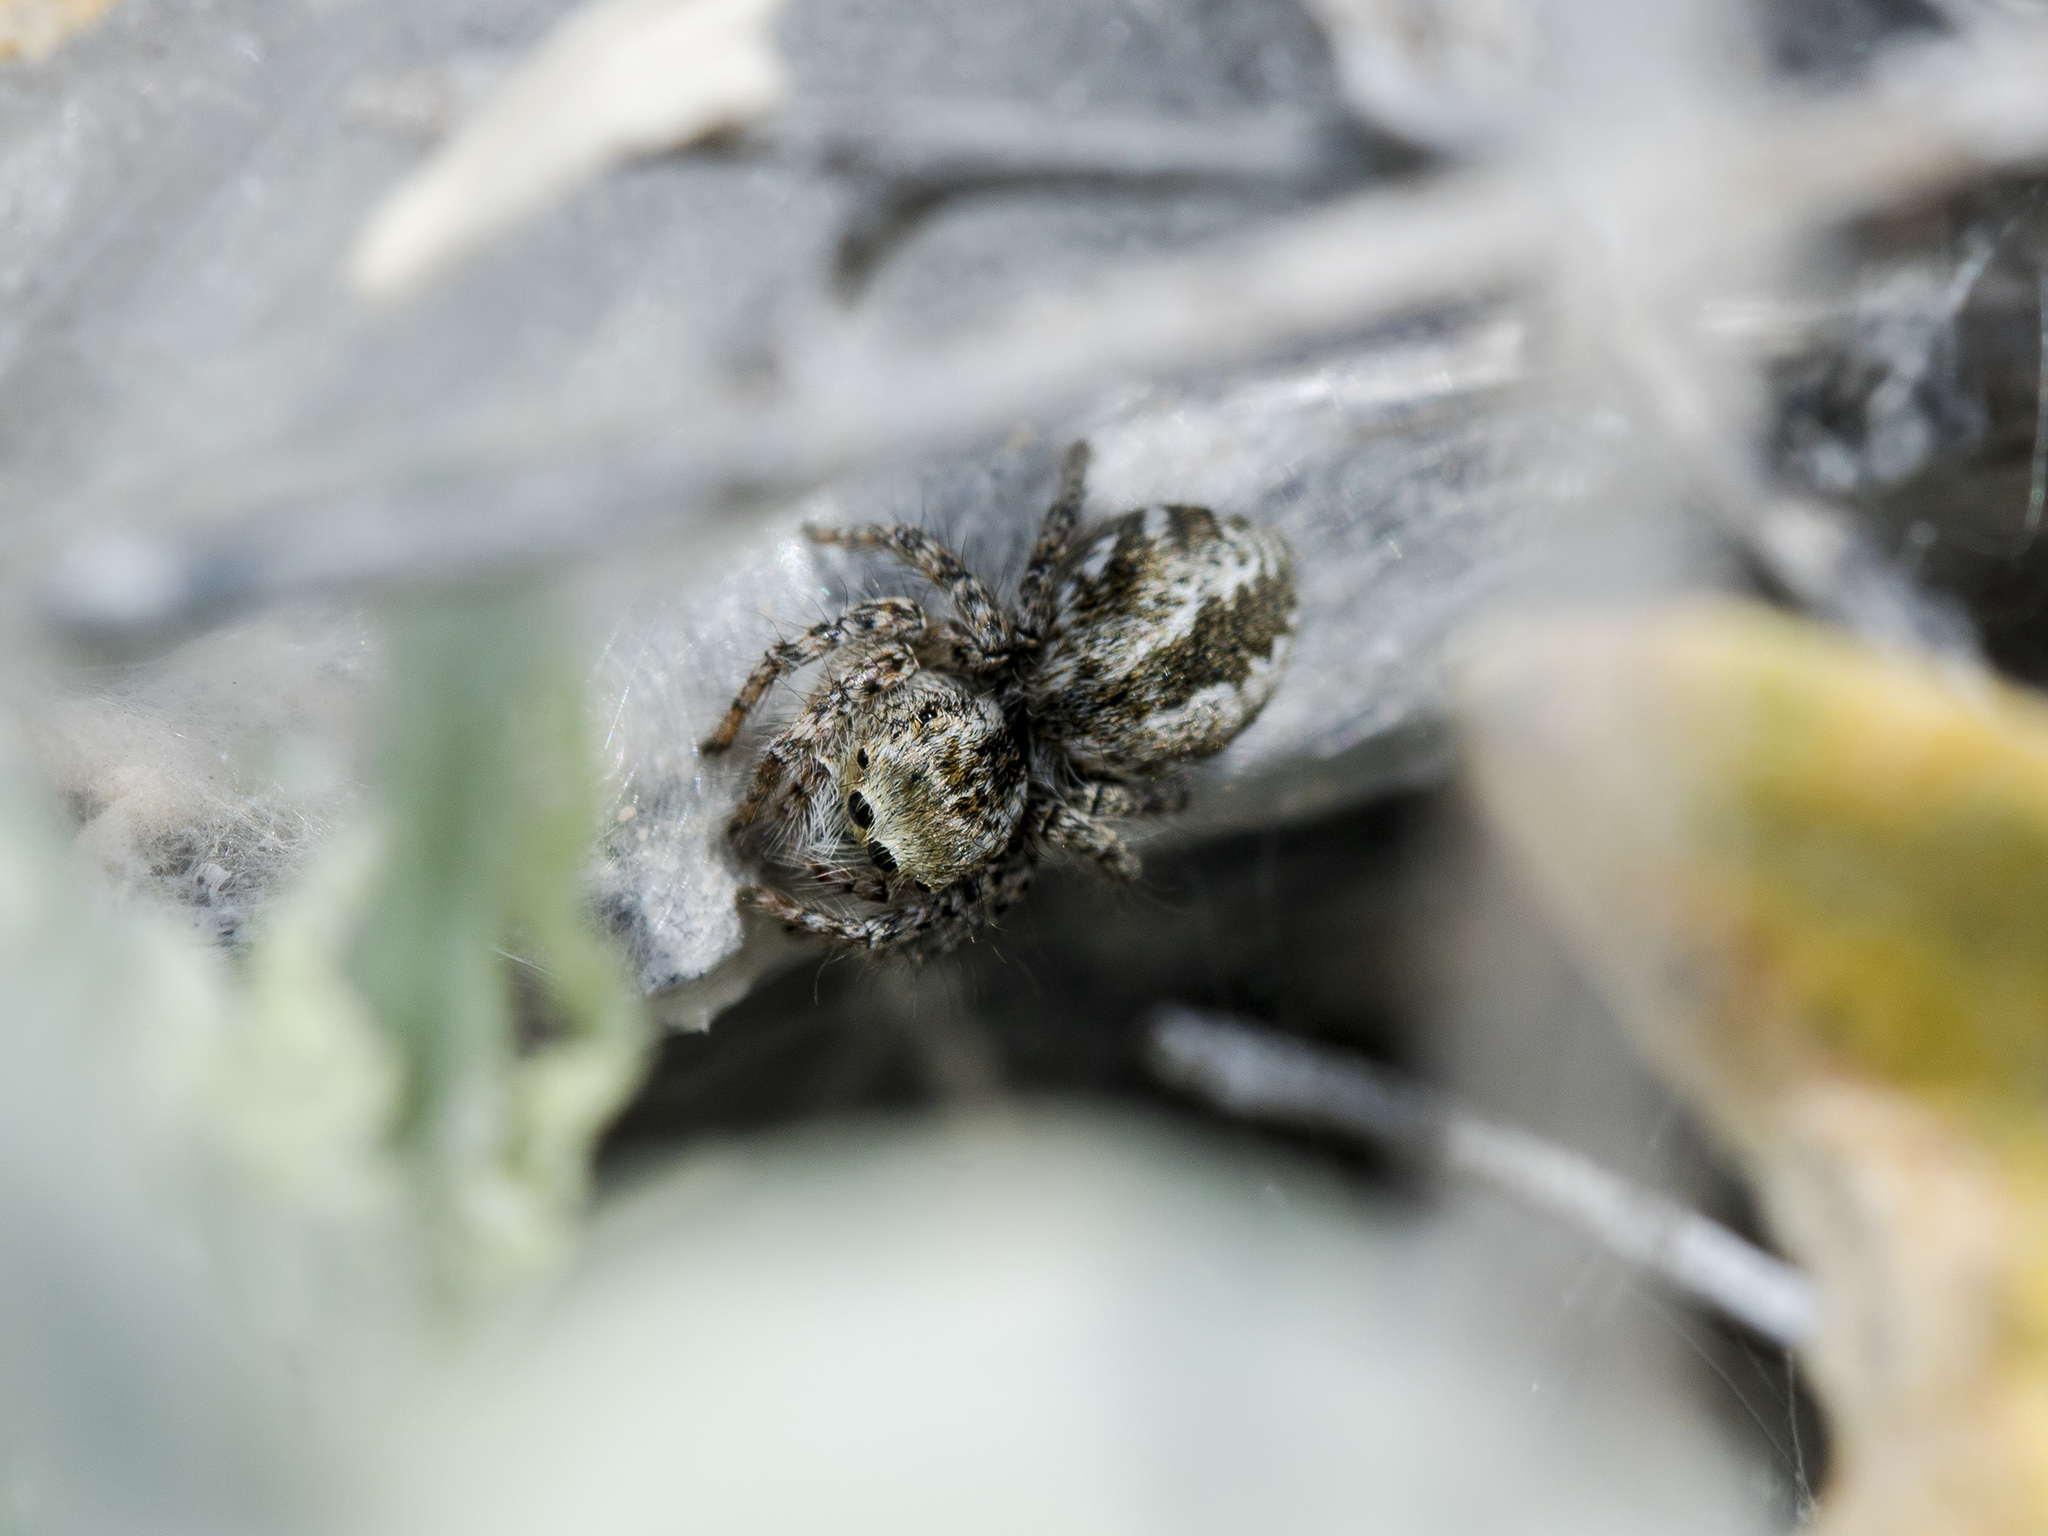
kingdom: Animalia
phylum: Arthropoda
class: Arachnida
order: Araneae
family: Salticidae
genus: Mogrus
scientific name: Mogrus larisae
